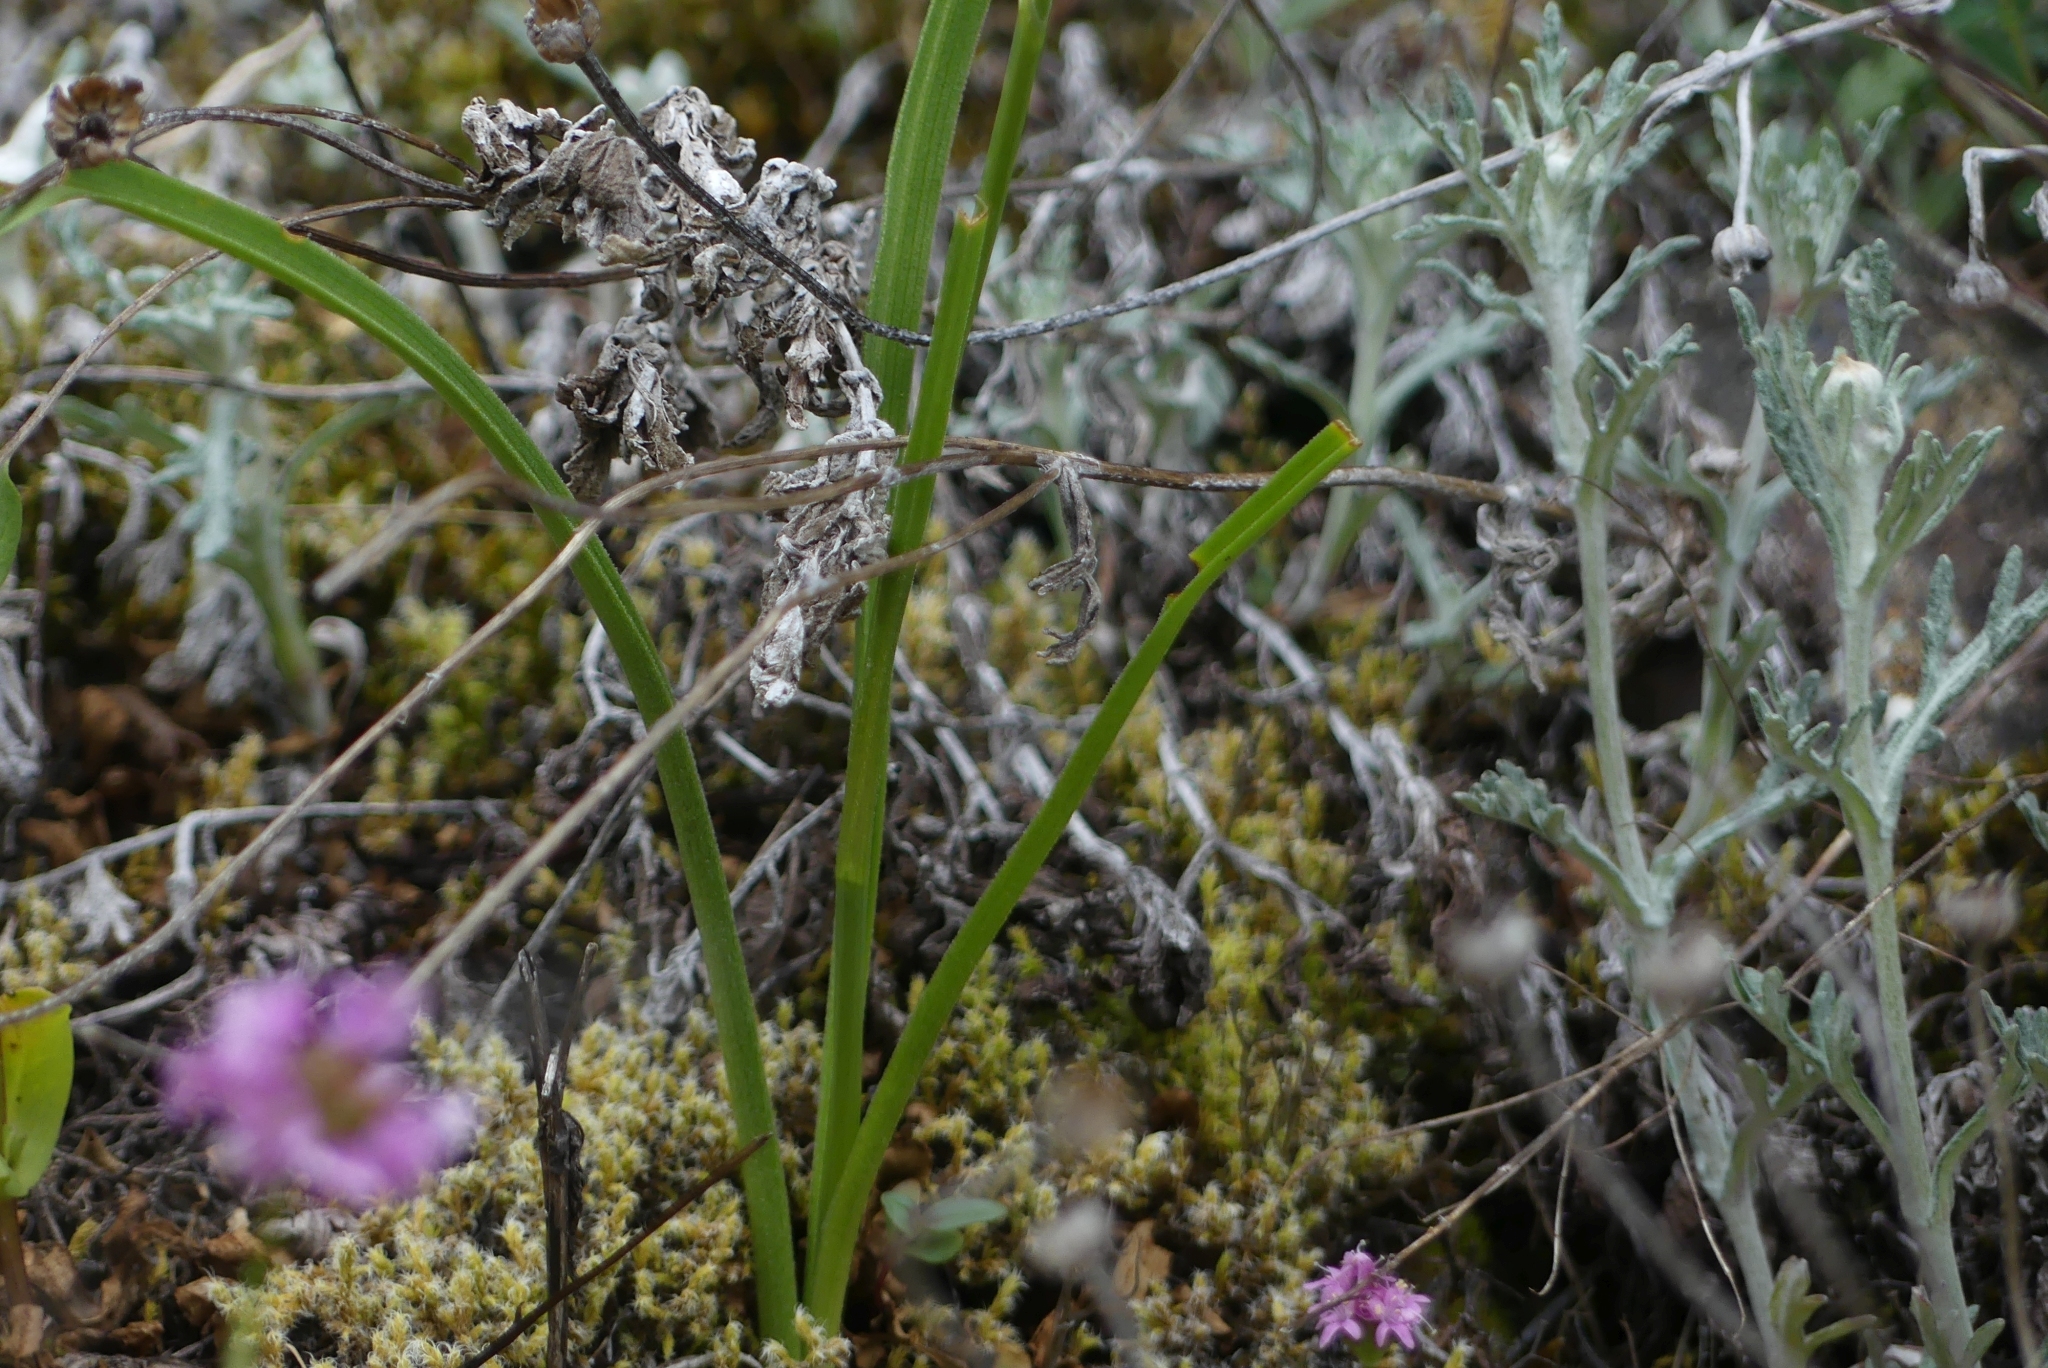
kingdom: Plantae
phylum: Tracheophyta
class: Liliopsida
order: Liliales
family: Melanthiaceae
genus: Toxicoscordion
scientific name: Toxicoscordion venenosum
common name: Meadow death camas
